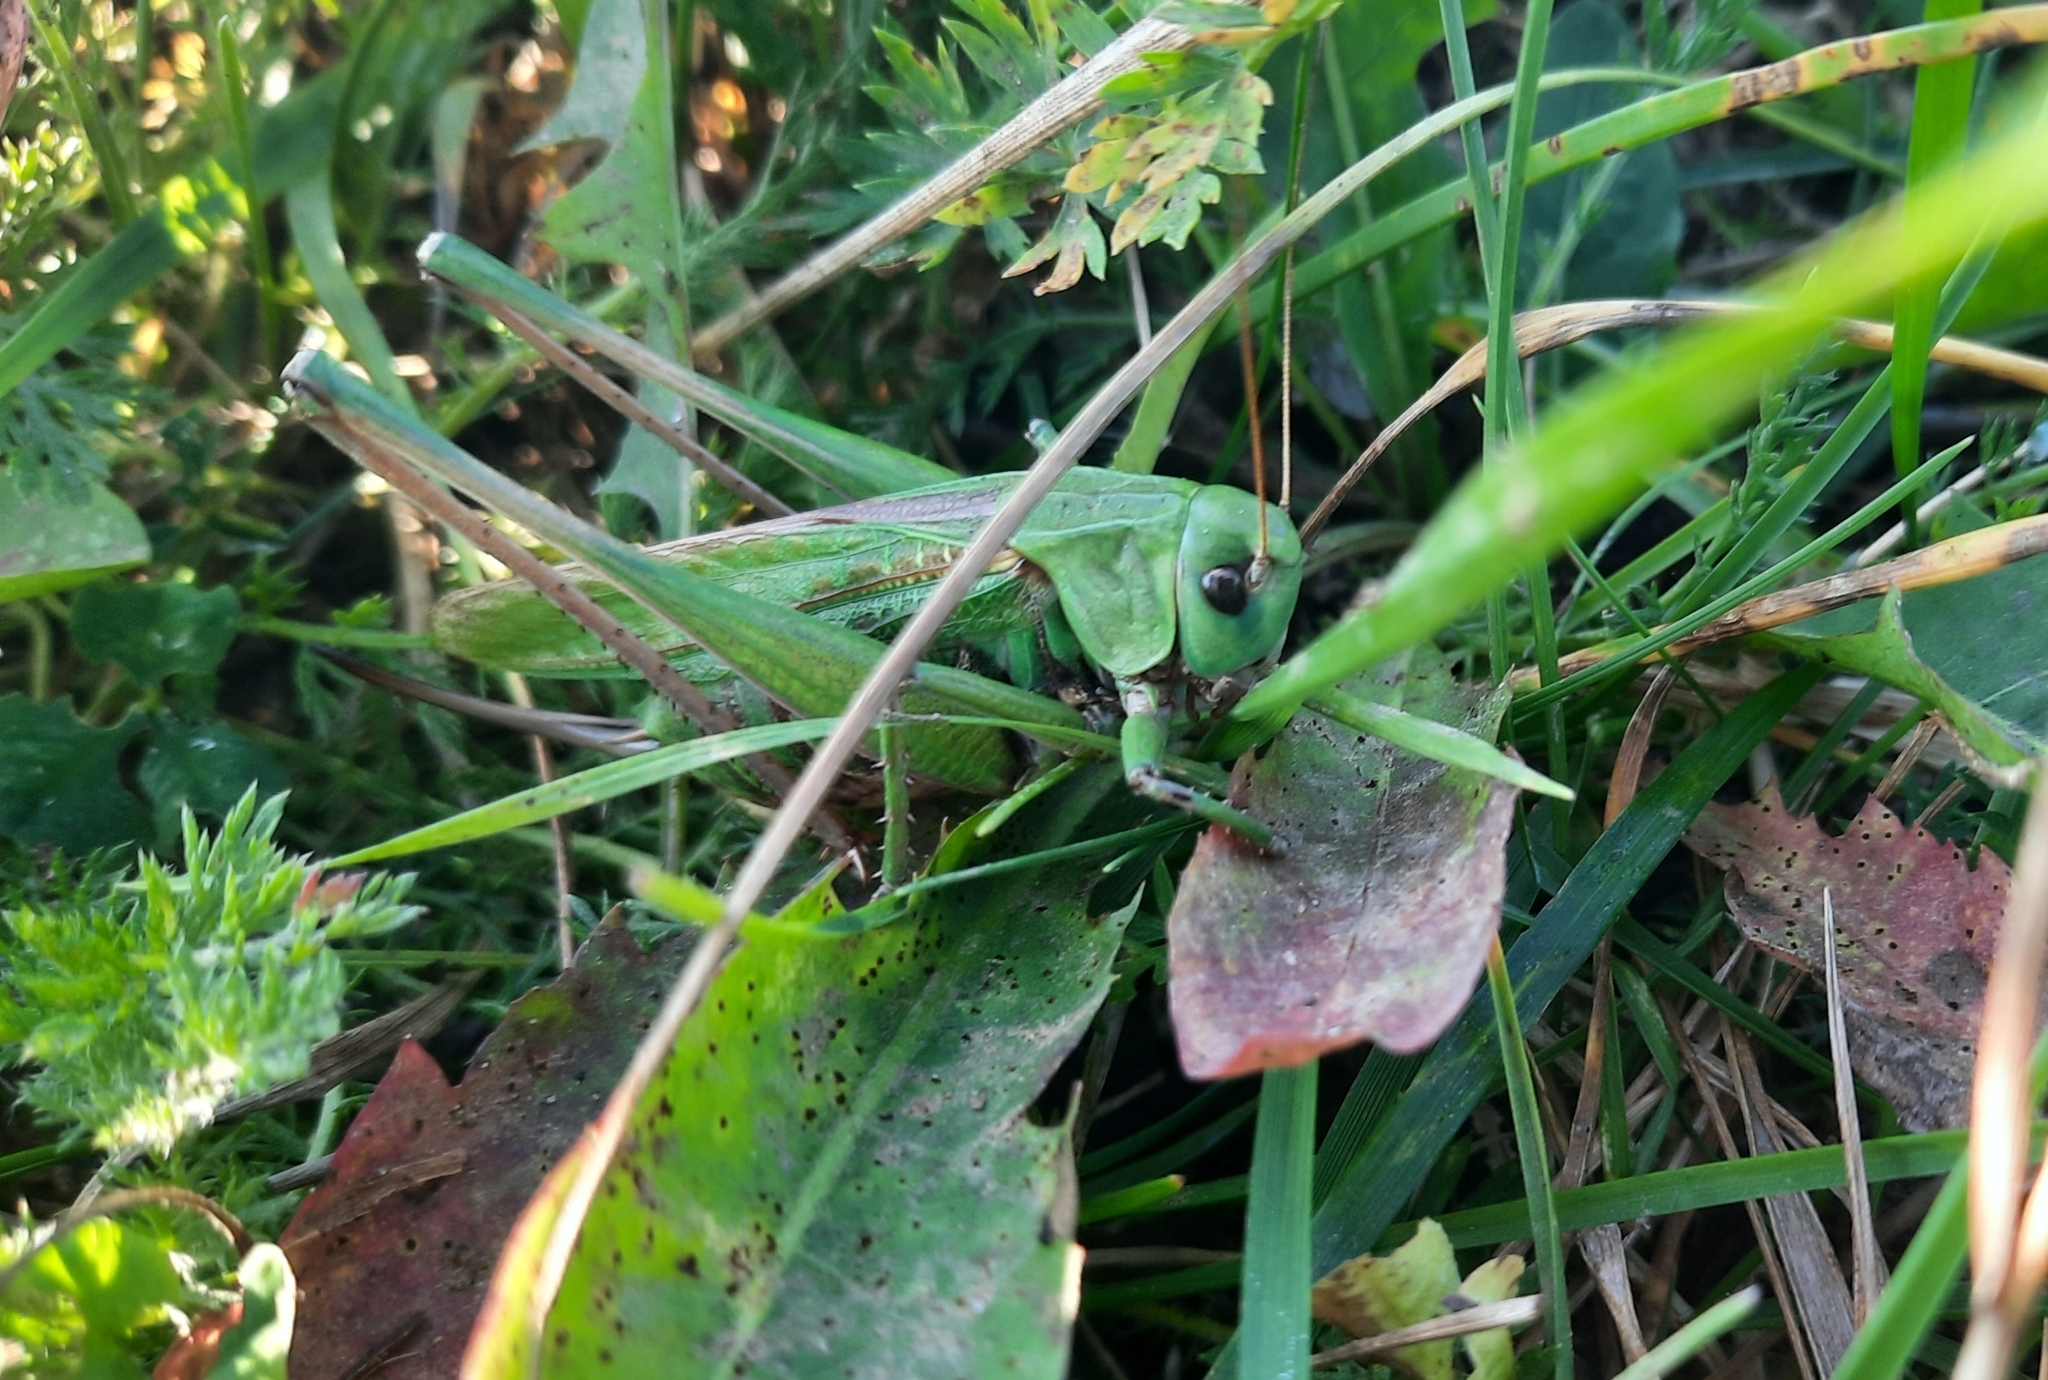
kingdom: Animalia
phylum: Arthropoda
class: Insecta
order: Orthoptera
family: Tettigoniidae
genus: Decticus
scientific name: Decticus verrucivorus
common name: Wart-biter
